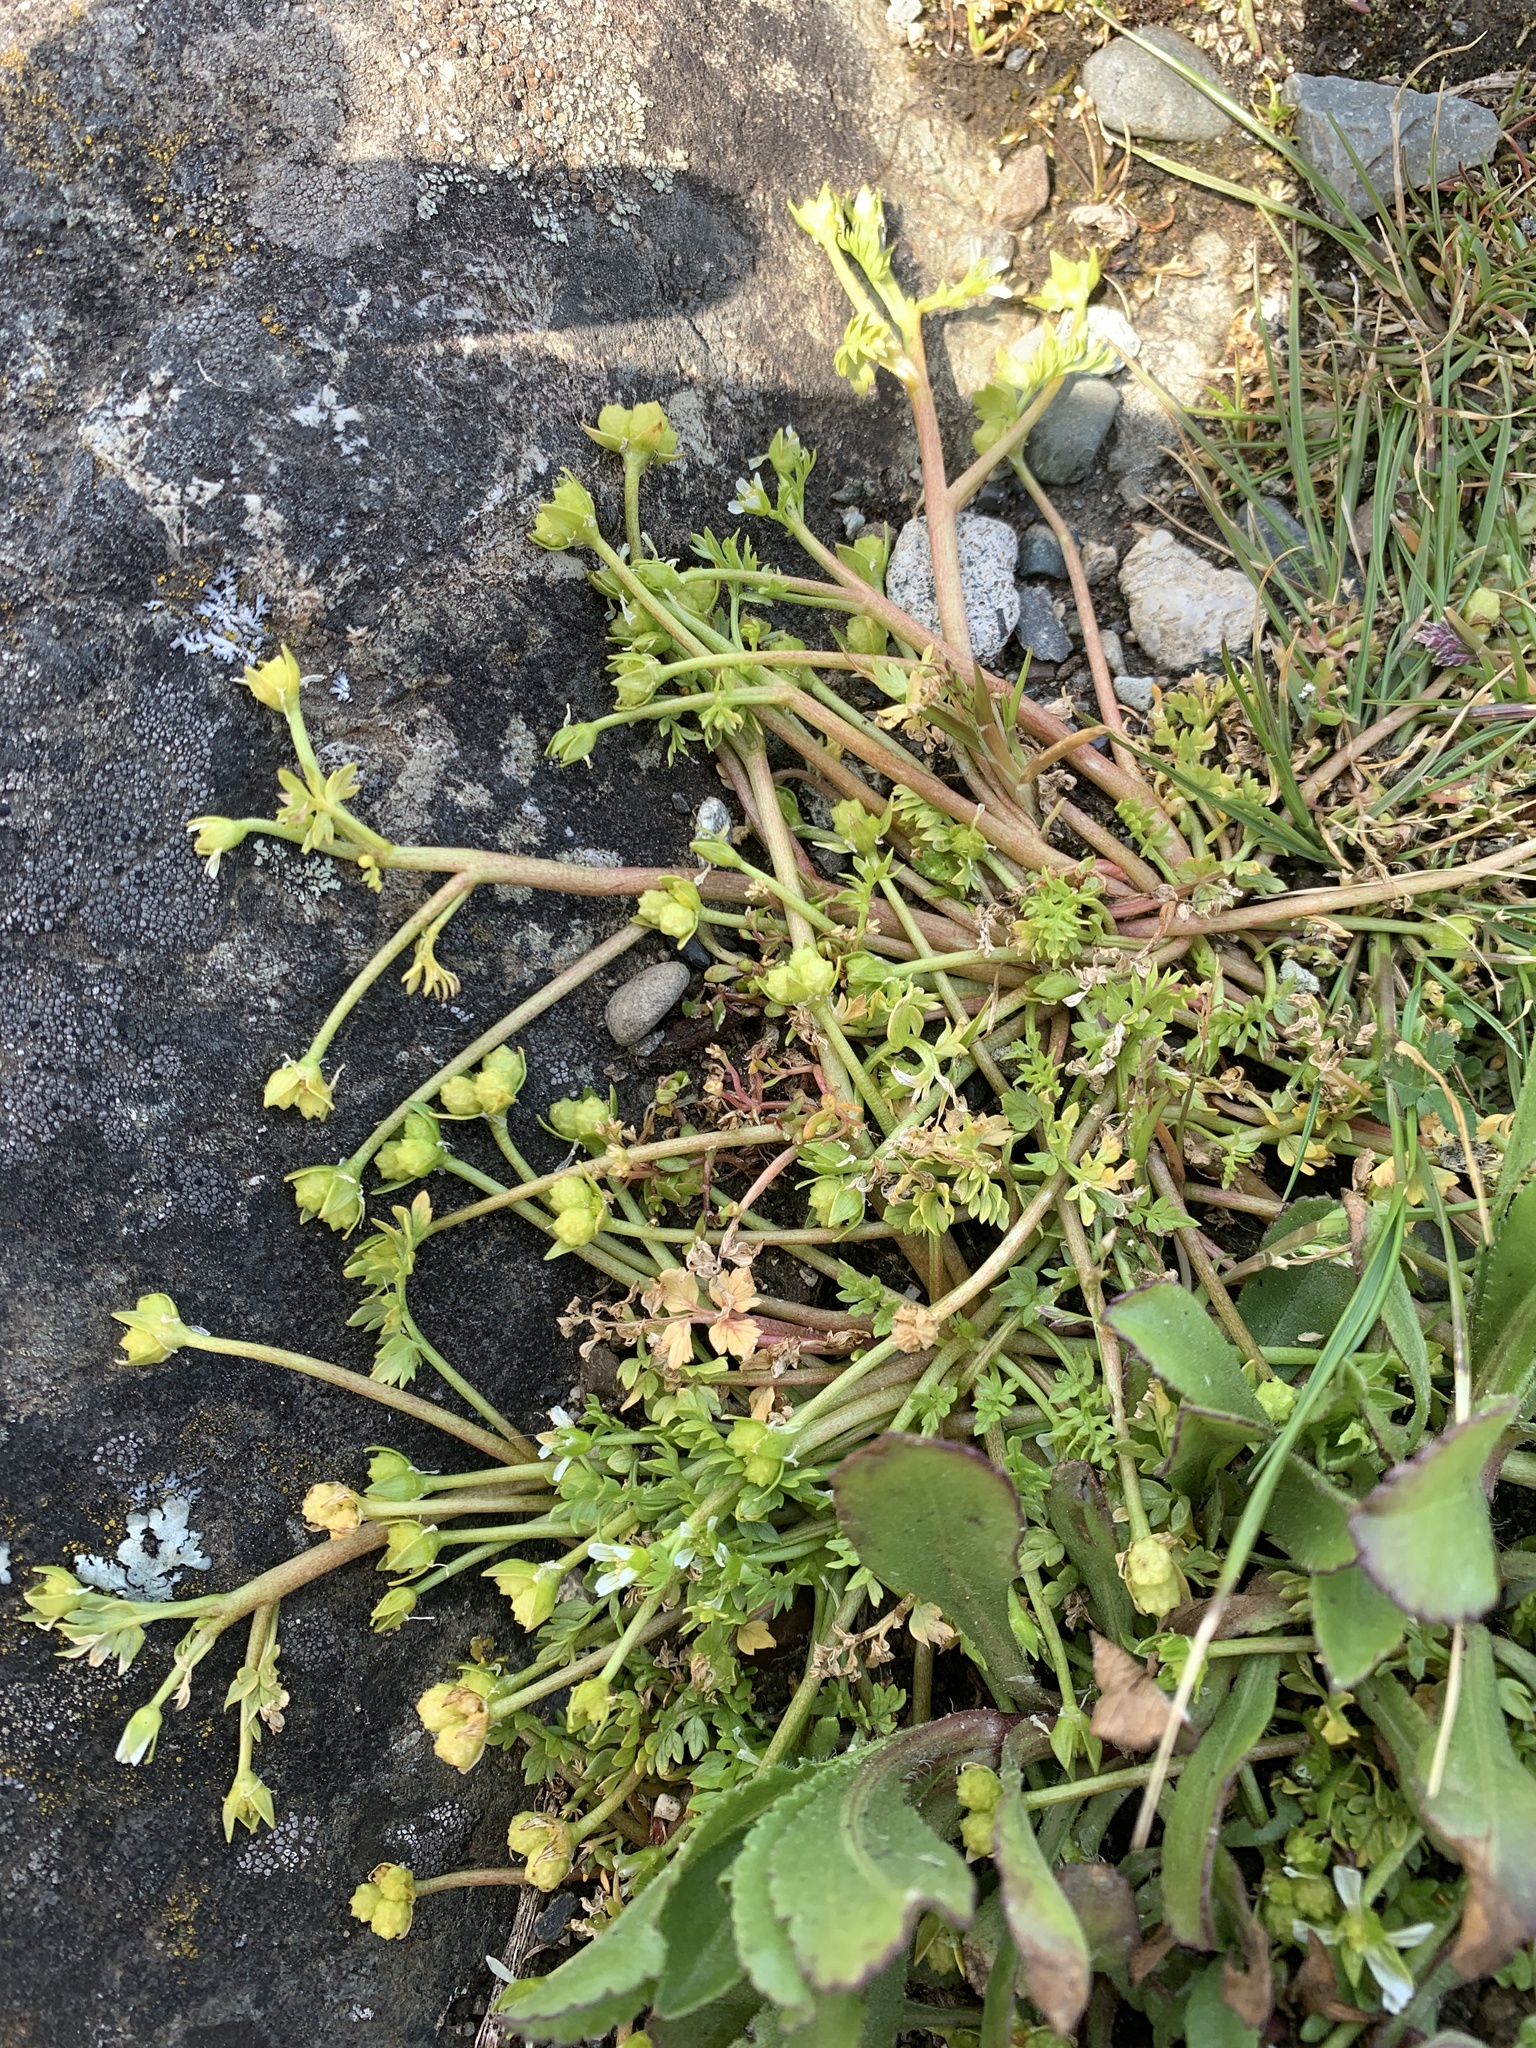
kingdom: Plantae
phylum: Tracheophyta
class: Magnoliopsida
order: Brassicales
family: Limnanthaceae
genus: Limnanthes
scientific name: Limnanthes macounii
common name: Macoun's meadowfoam
